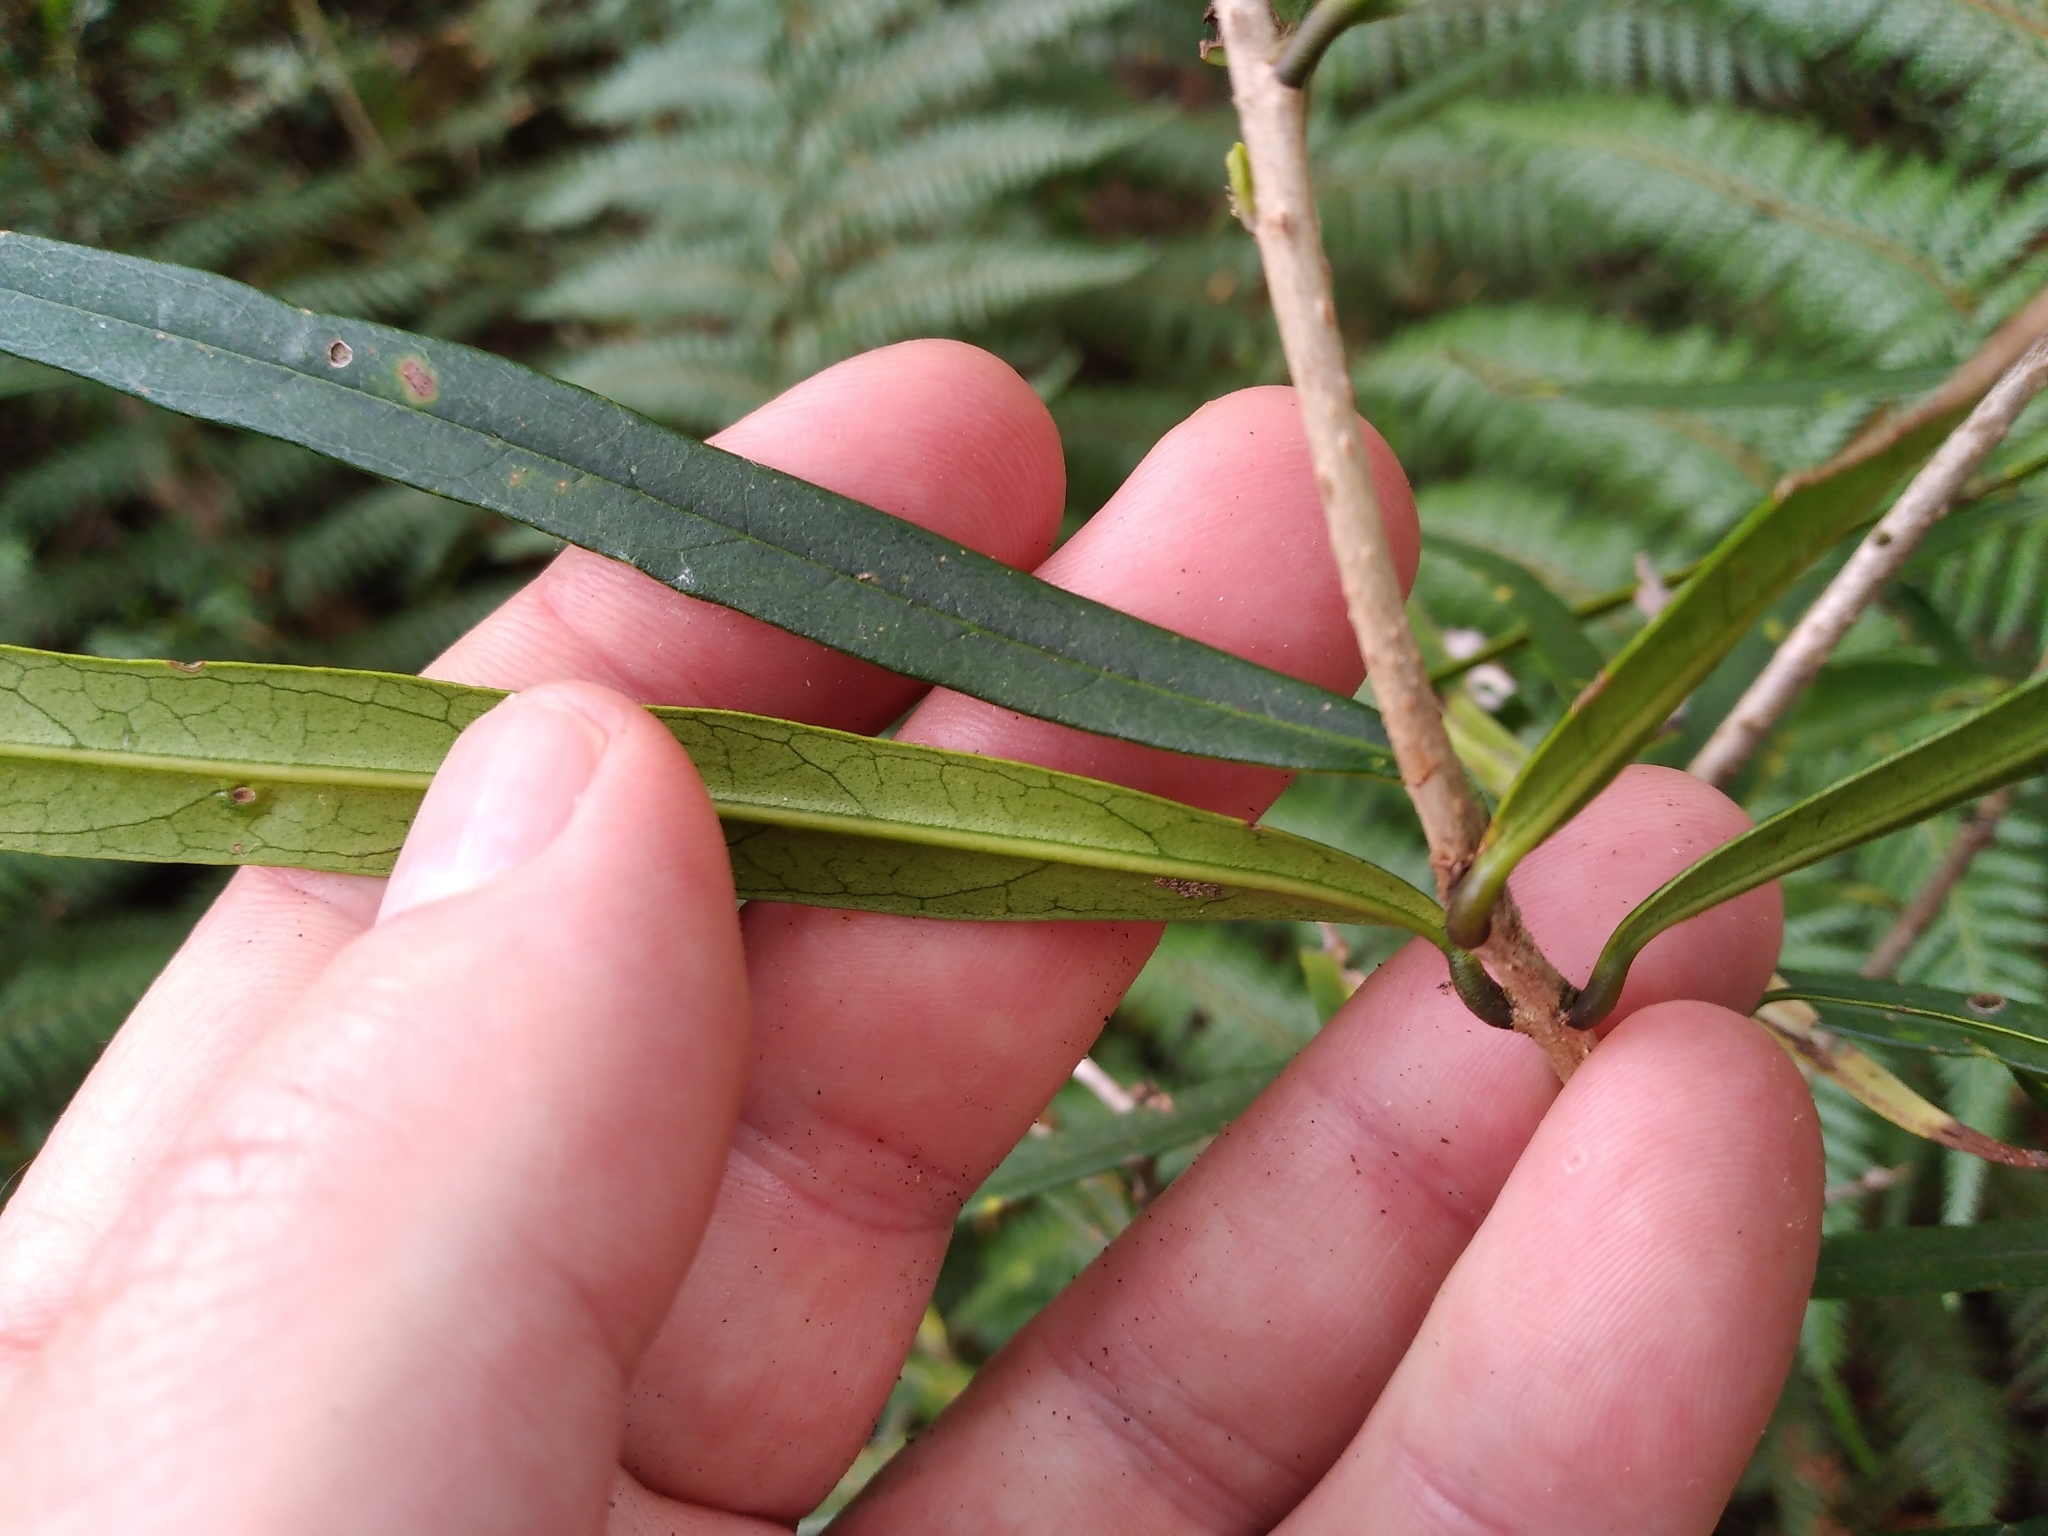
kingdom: Plantae
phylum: Tracheophyta
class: Magnoliopsida
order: Lamiales
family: Oleaceae
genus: Nestegis
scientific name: Nestegis cunninghamii
